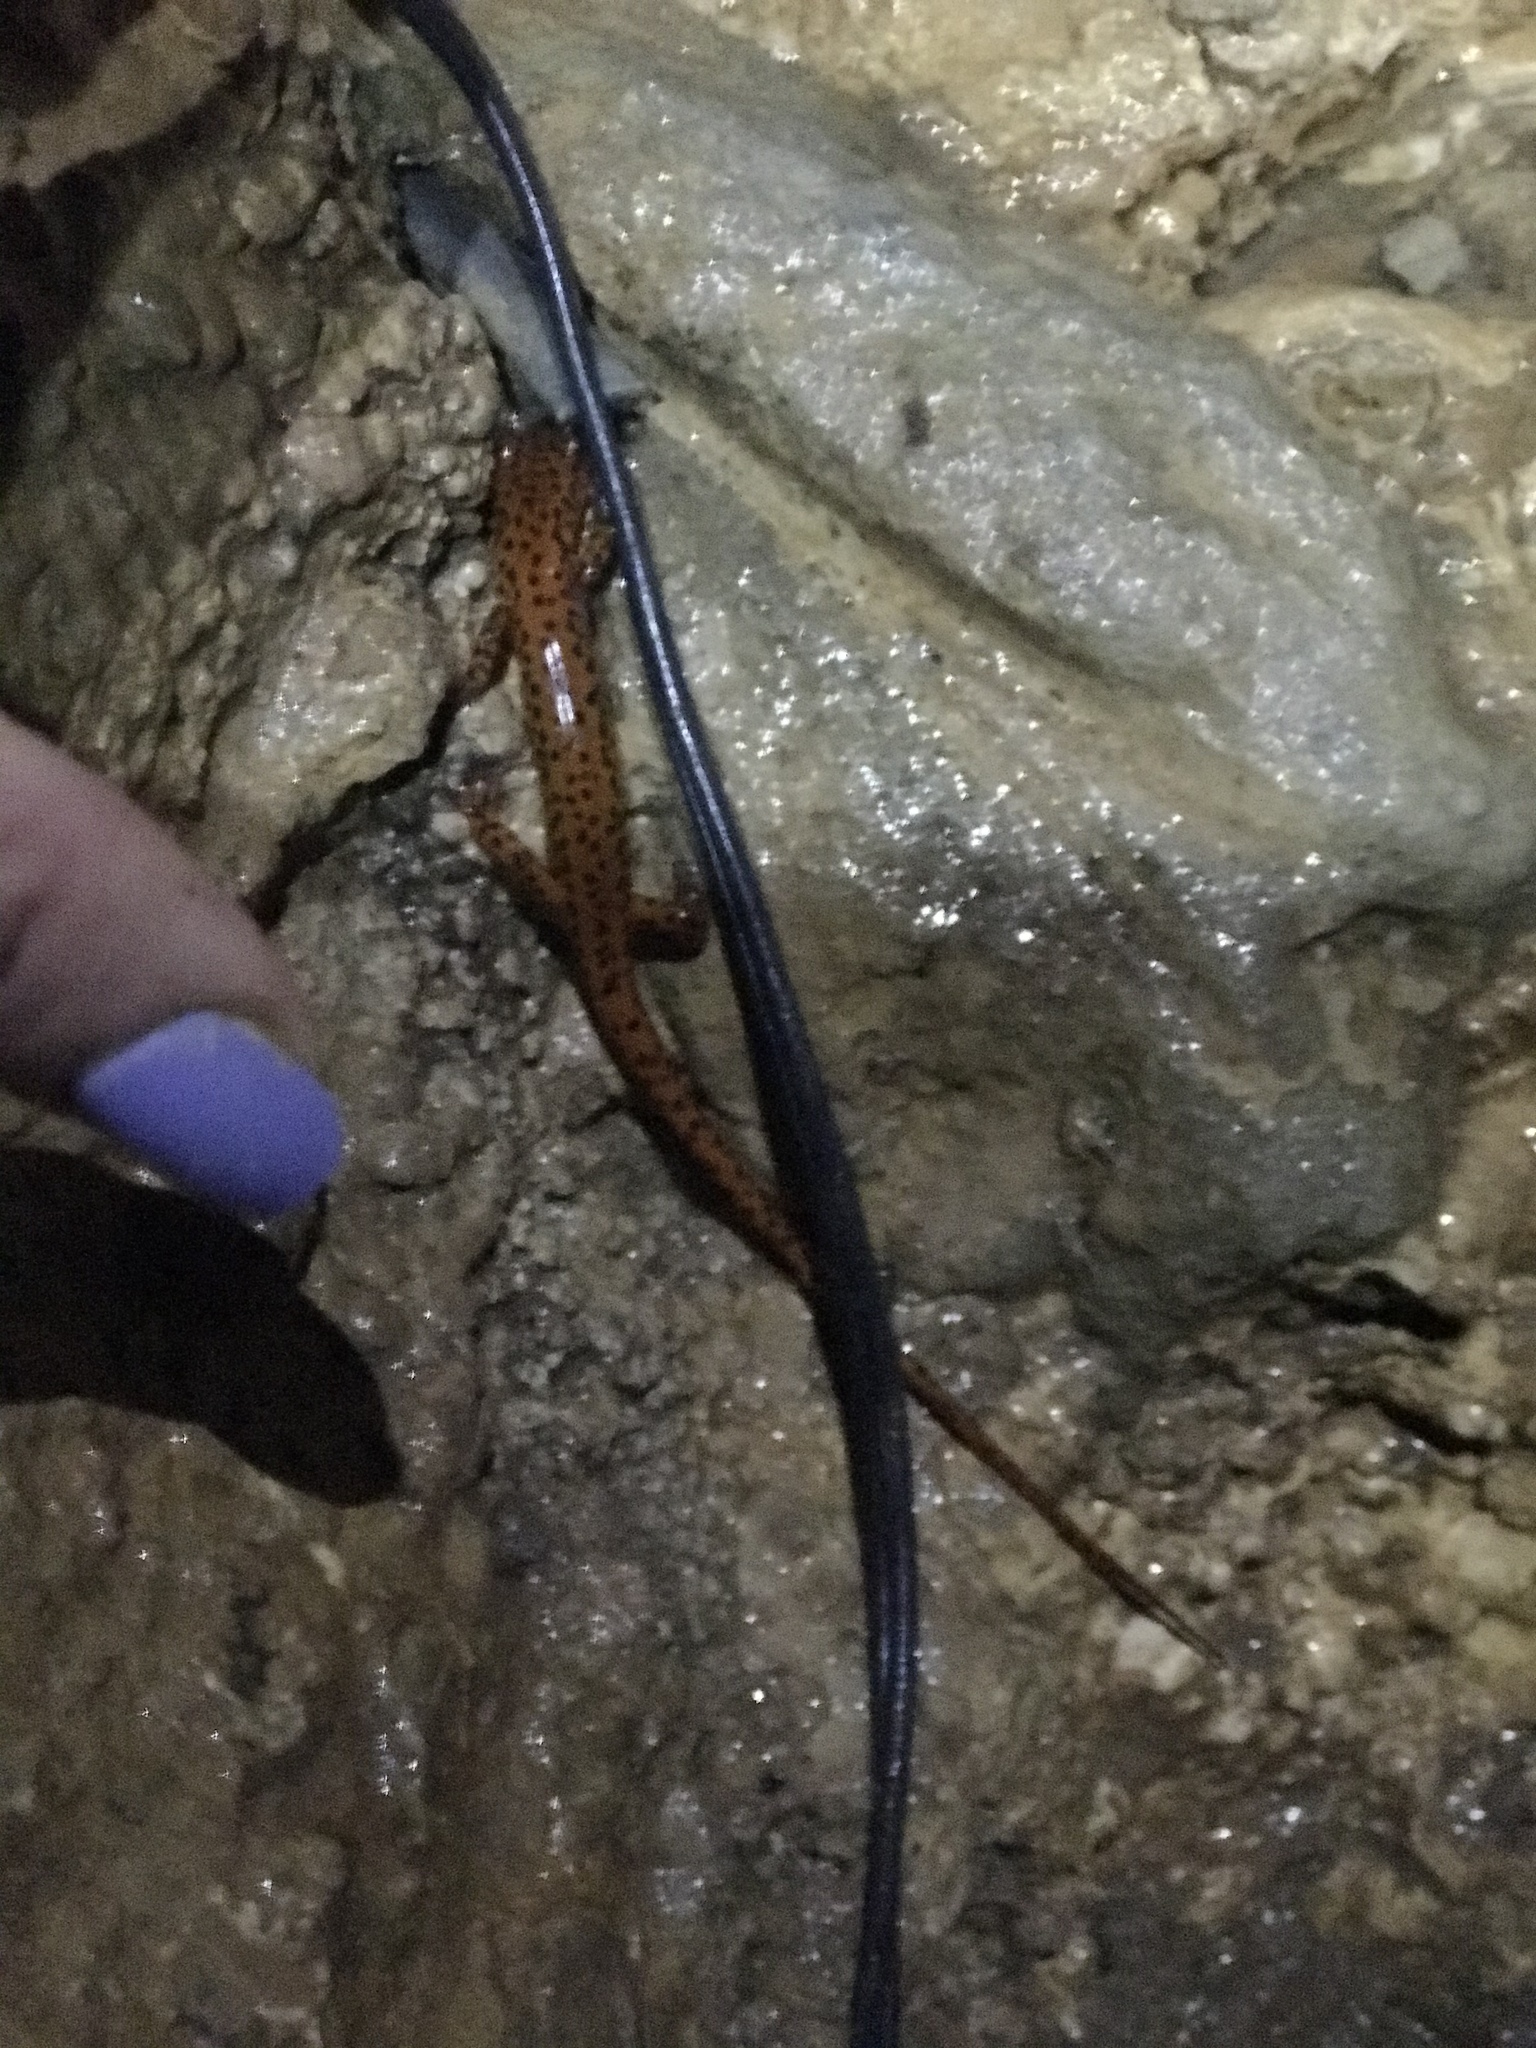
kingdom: Animalia
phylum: Chordata
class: Amphibia
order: Caudata
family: Plethodontidae
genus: Eurycea
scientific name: Eurycea lucifuga
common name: Cave salamander
